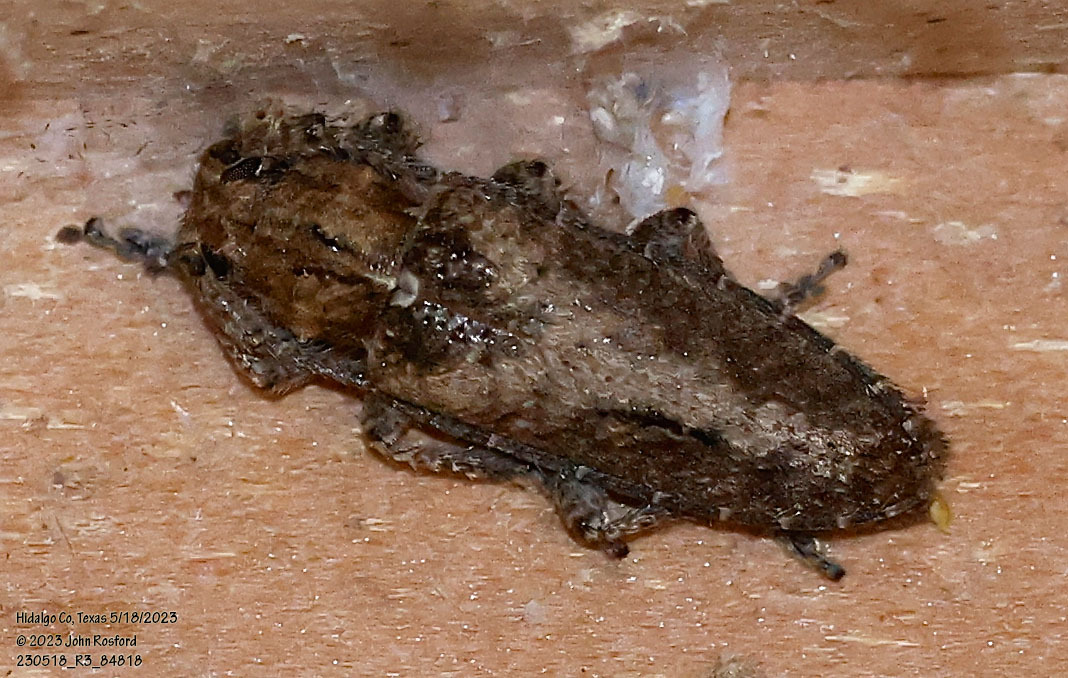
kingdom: Animalia
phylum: Arthropoda
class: Insecta
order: Coleoptera
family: Cerambycidae
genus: Ataxia
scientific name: Ataxia crypta
